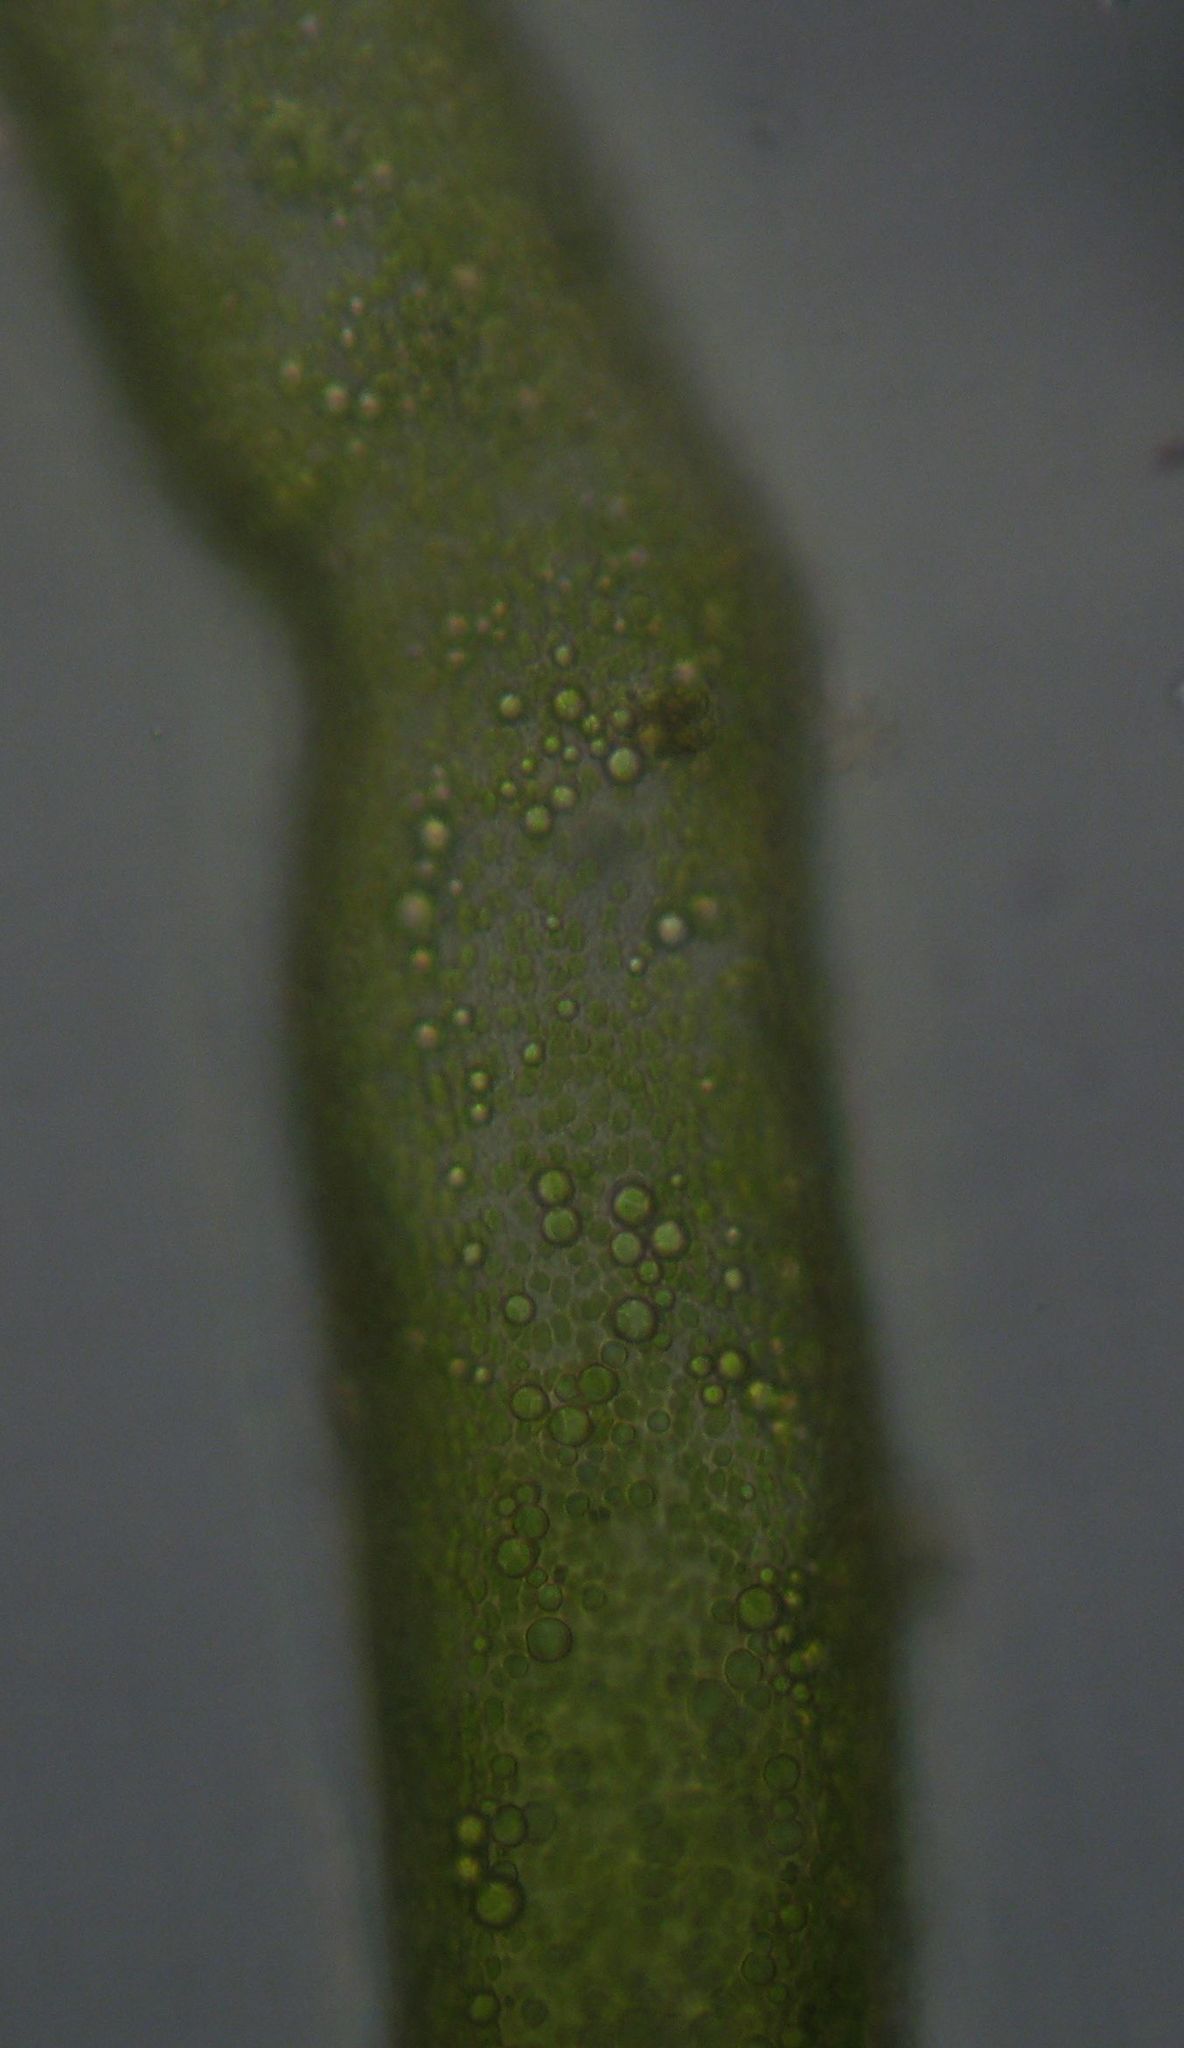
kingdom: Chromista
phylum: Ochrophyta
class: Xanthophyceae
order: Vaucheriales
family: Vaucheriaceae
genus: Vaucheria
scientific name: Vaucheria
